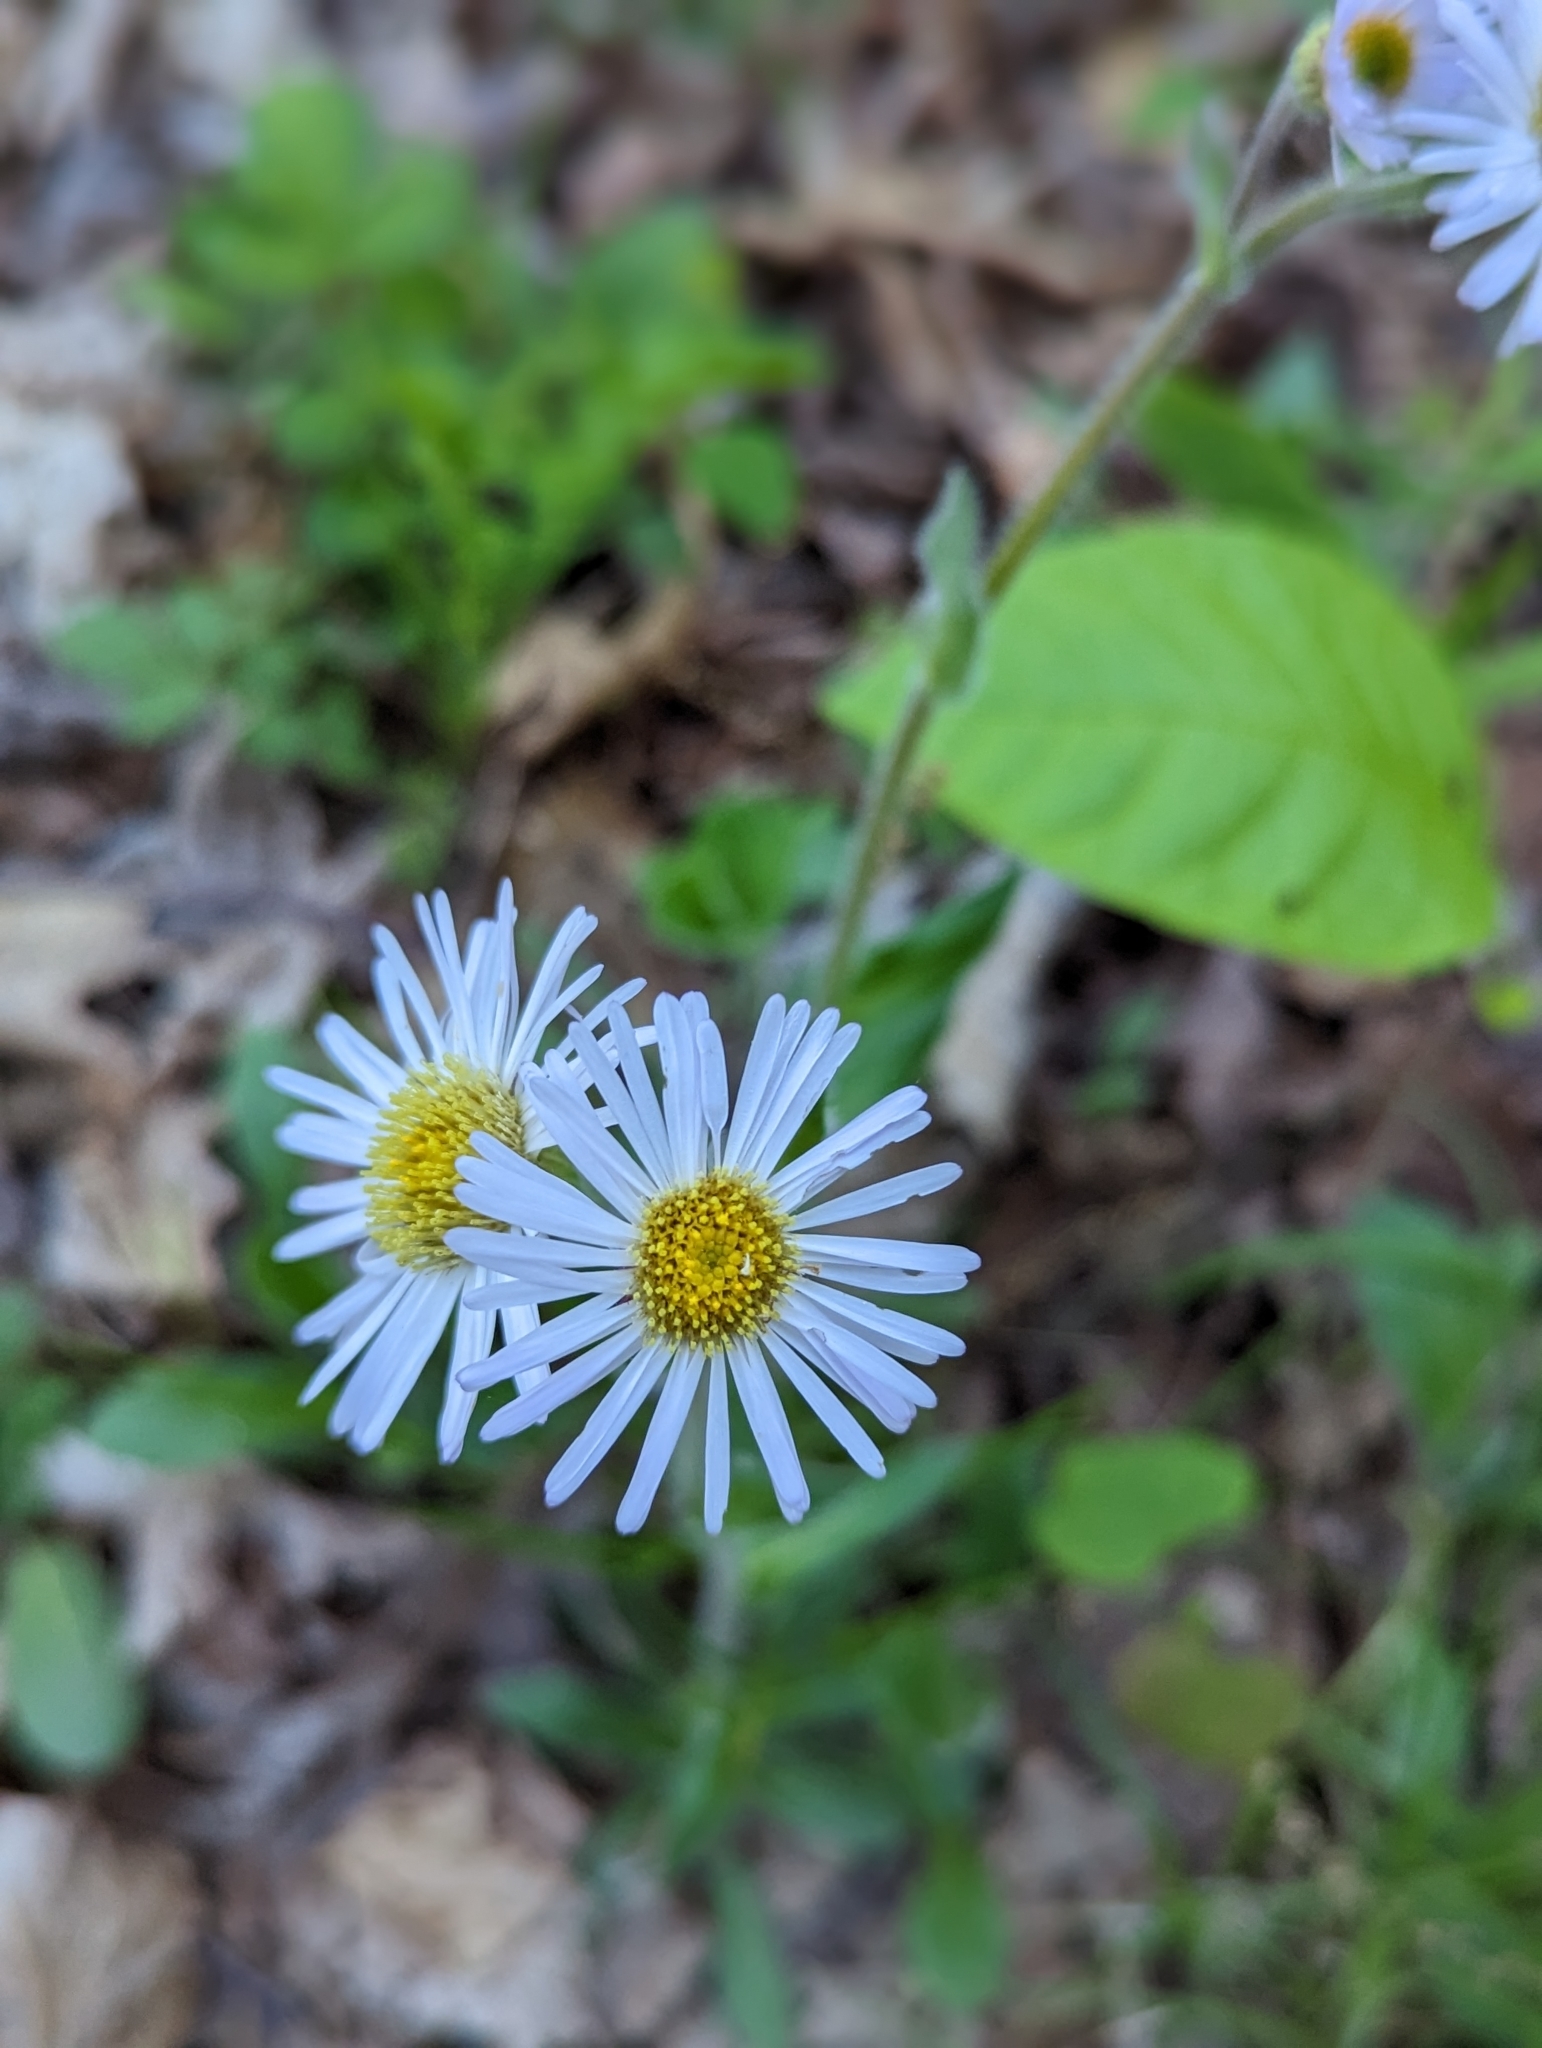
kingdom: Plantae
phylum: Tracheophyta
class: Magnoliopsida
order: Asterales
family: Asteraceae
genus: Erigeron
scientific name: Erigeron pulchellus
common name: Hairy fleabane
